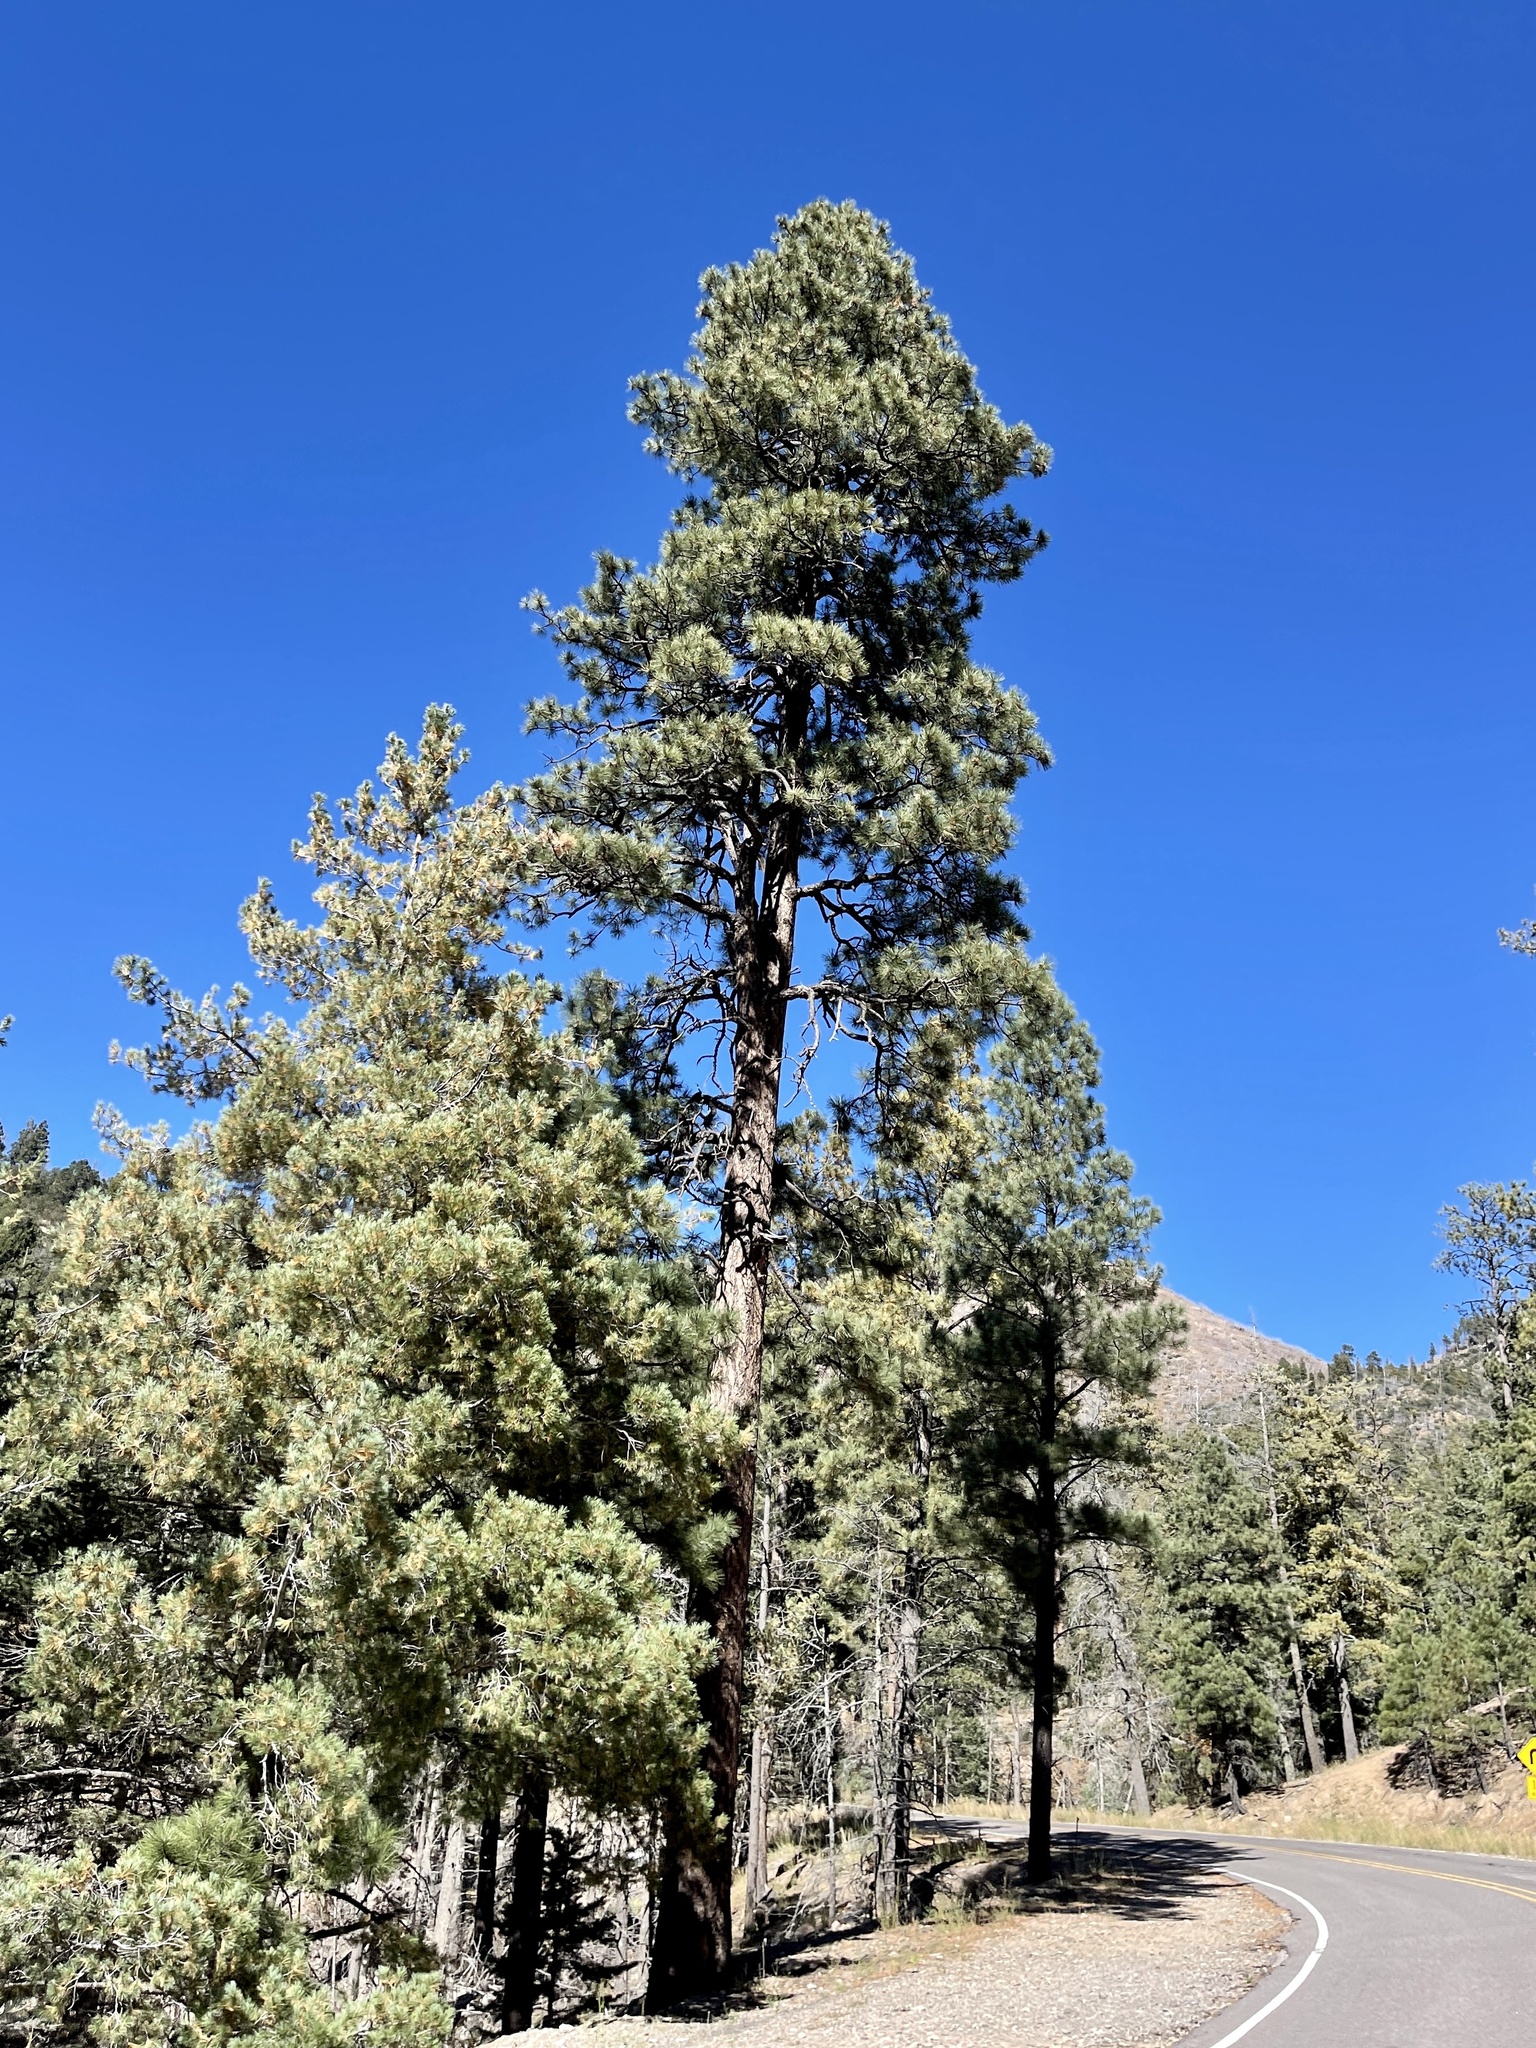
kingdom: Plantae
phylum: Tracheophyta
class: Pinopsida
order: Pinales
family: Pinaceae
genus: Pinus
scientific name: Pinus ponderosa
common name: Western yellow-pine
